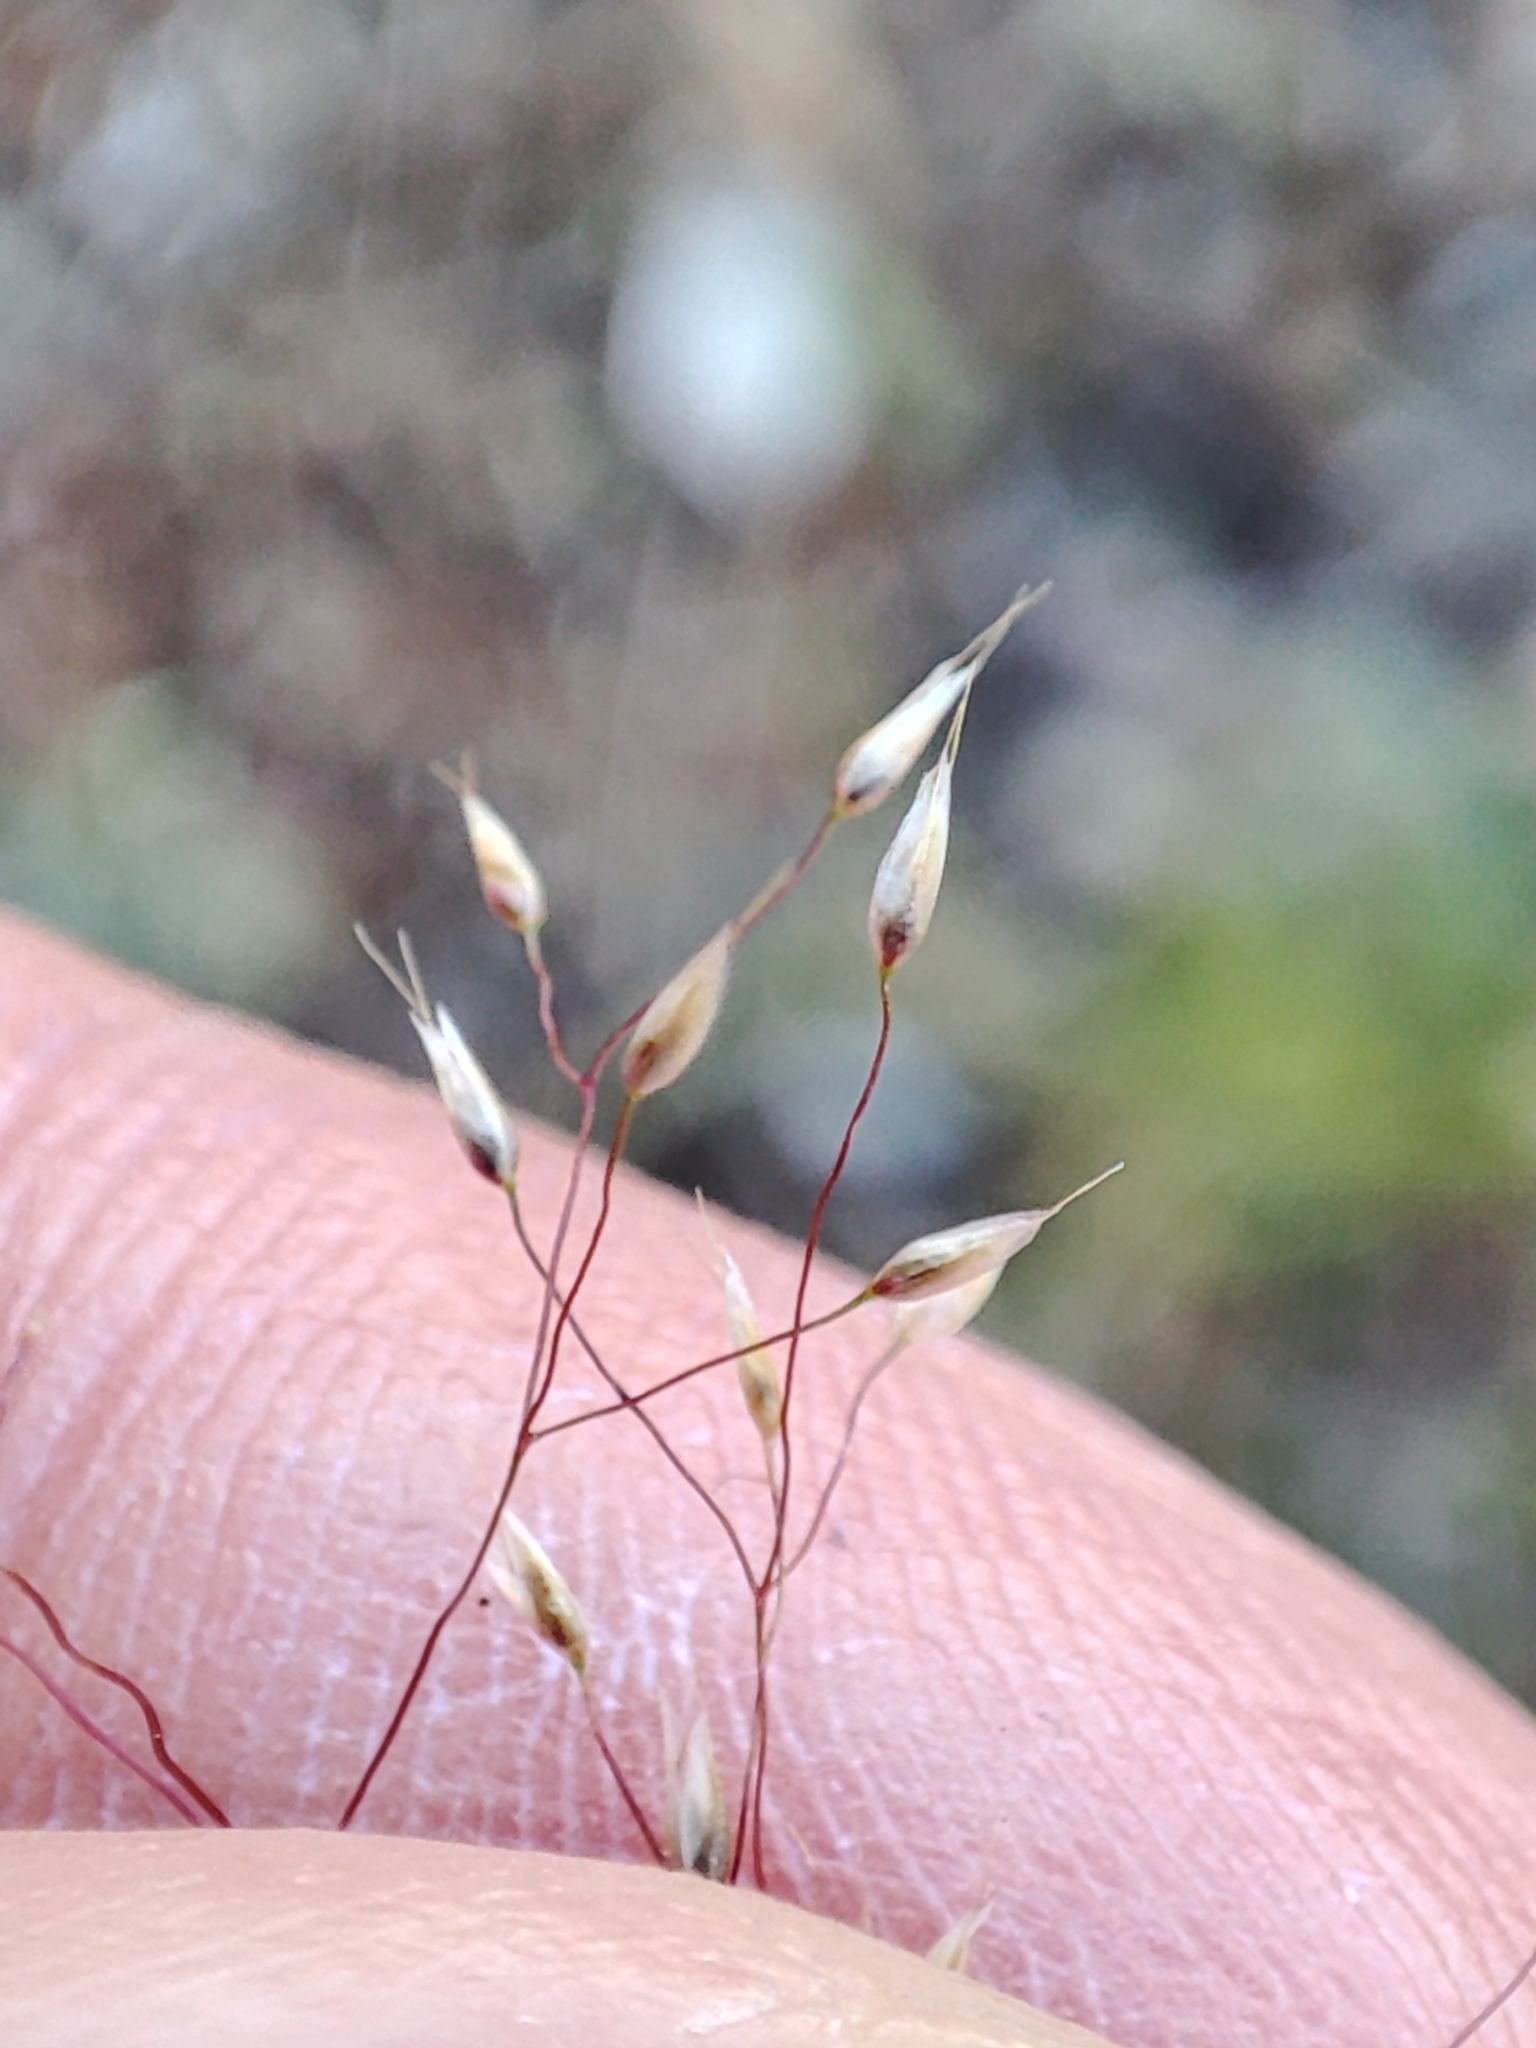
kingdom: Plantae
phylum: Tracheophyta
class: Liliopsida
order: Poales
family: Poaceae
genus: Aira
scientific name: Aira elegans
